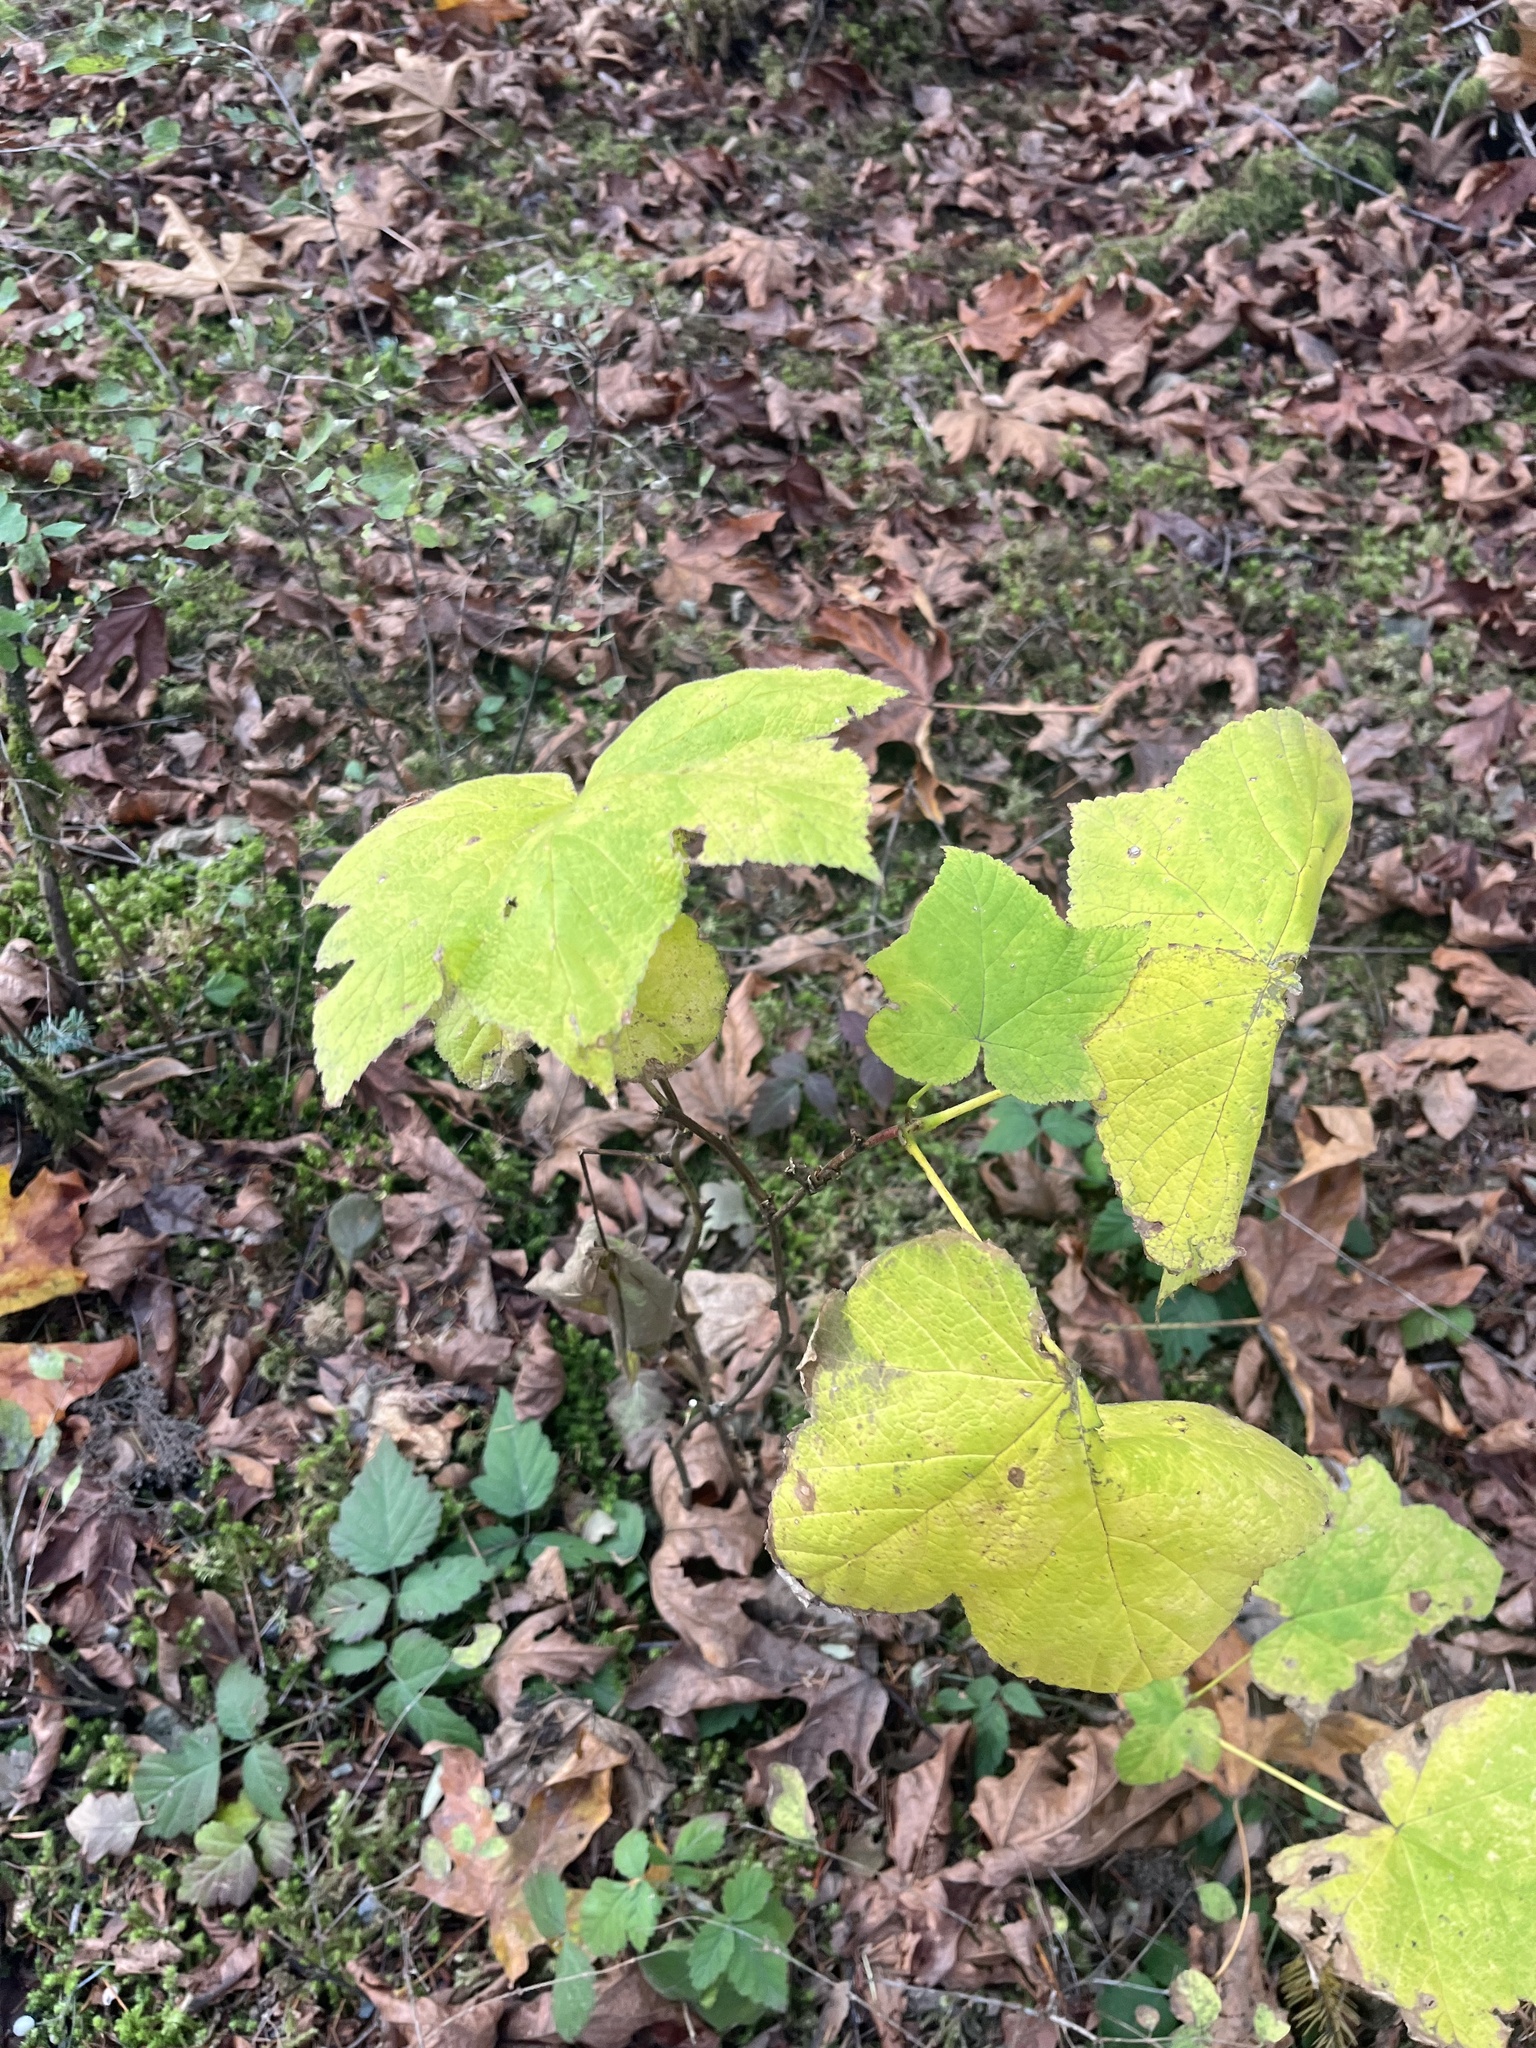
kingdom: Plantae
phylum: Tracheophyta
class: Magnoliopsida
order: Rosales
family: Rosaceae
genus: Rubus
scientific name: Rubus parviflorus
